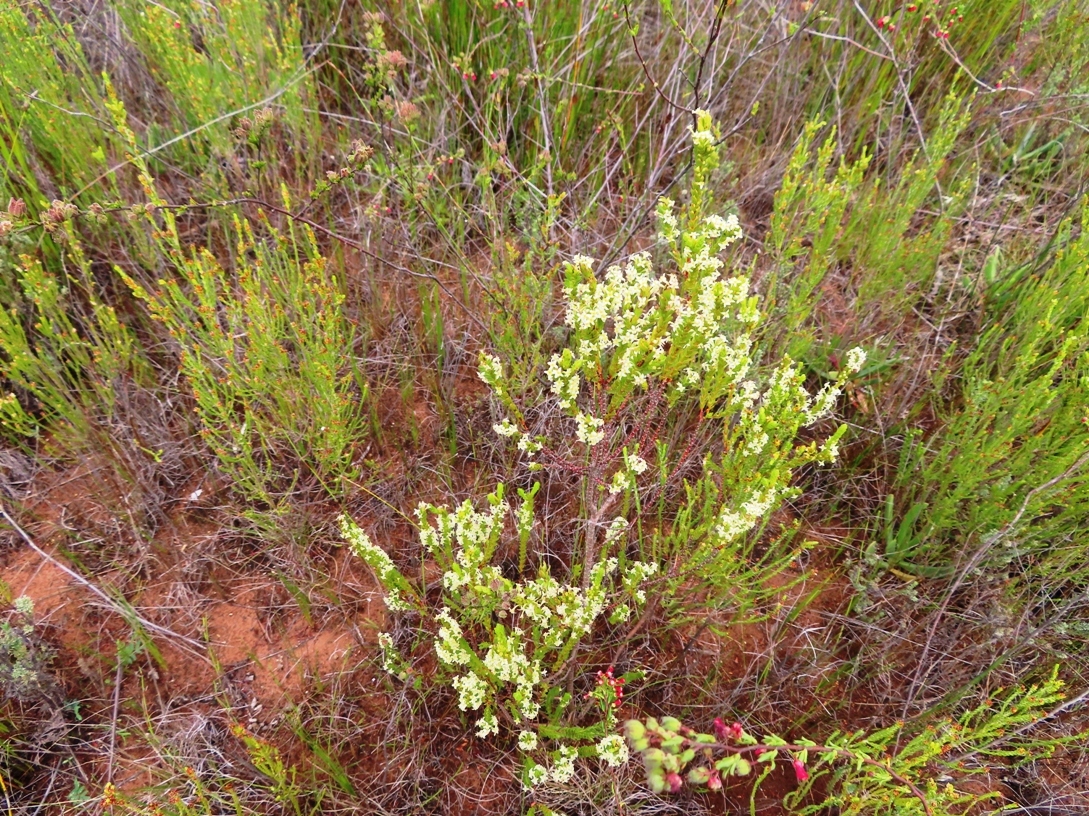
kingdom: Plantae
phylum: Tracheophyta
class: Magnoliopsida
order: Malvales
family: Thymelaeaceae
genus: Struthiola
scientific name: Struthiola striata
